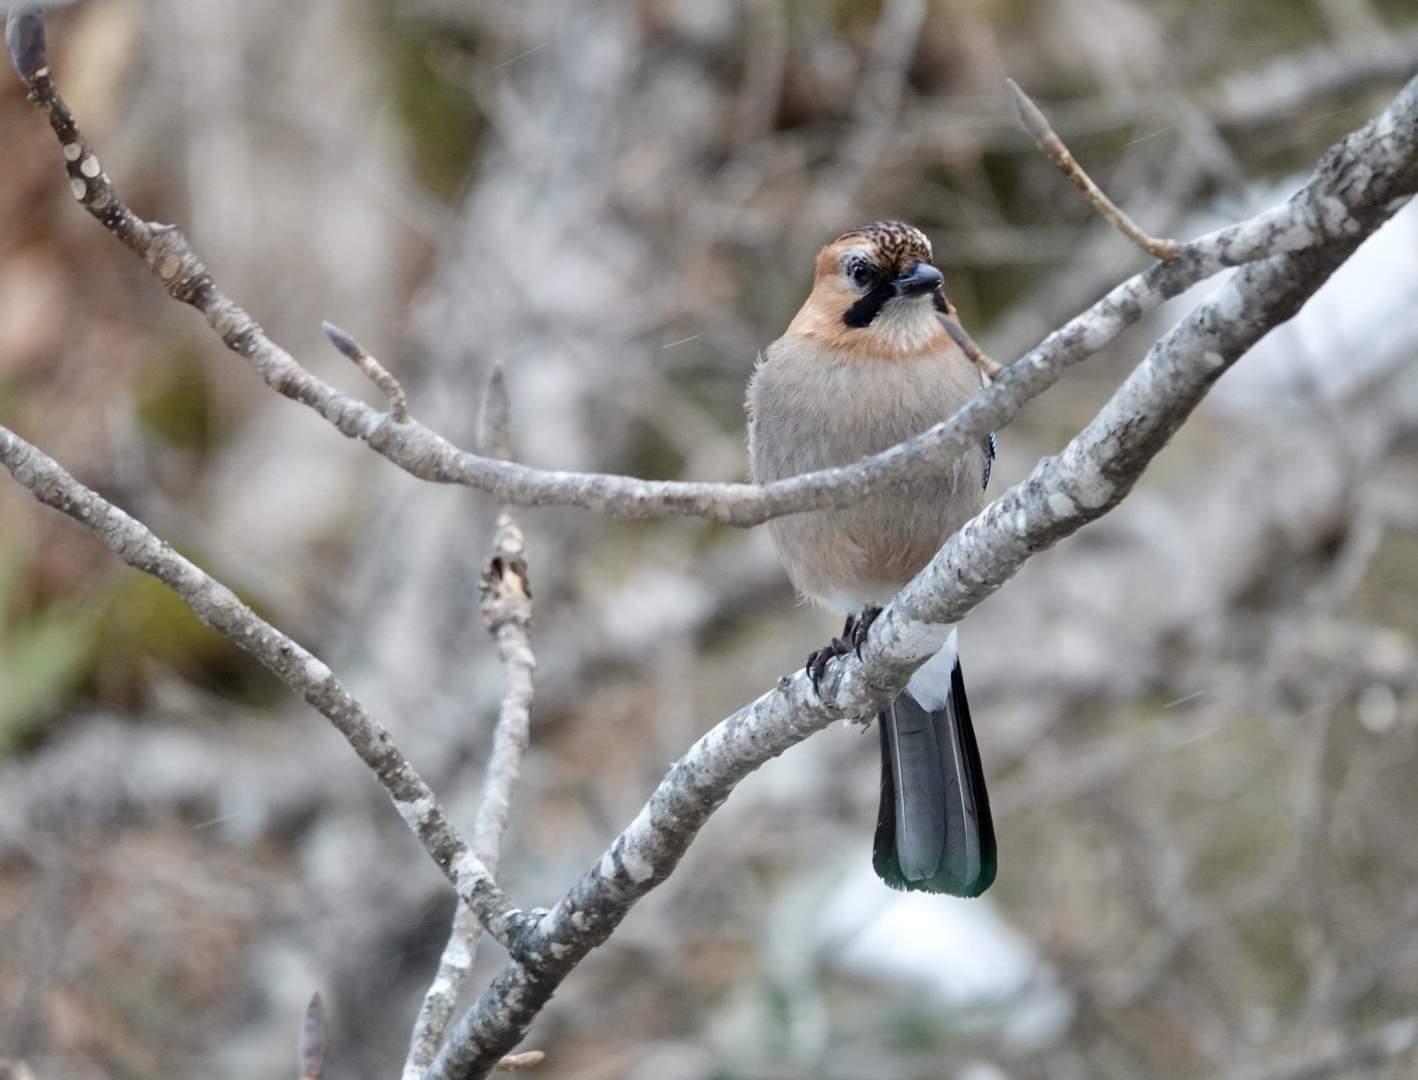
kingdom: Animalia
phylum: Chordata
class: Aves
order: Passeriformes
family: Corvidae
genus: Garrulus
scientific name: Garrulus glandarius
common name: Eurasian jay
